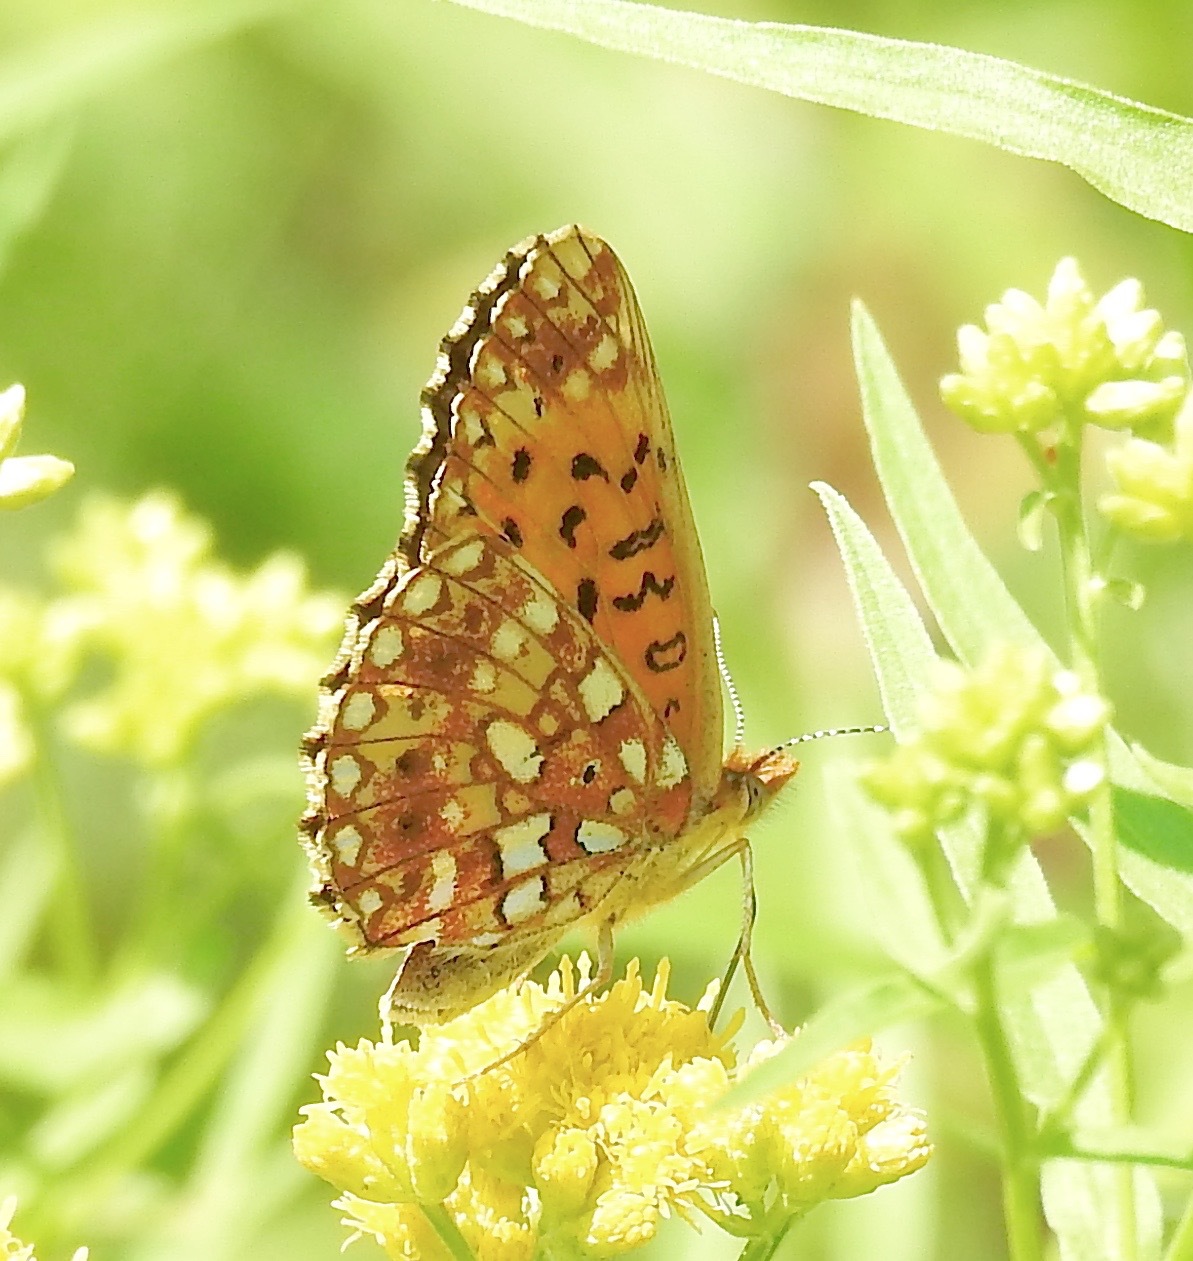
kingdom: Animalia
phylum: Arthropoda
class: Insecta
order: Lepidoptera
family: Nymphalidae
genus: Boloria
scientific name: Boloria
